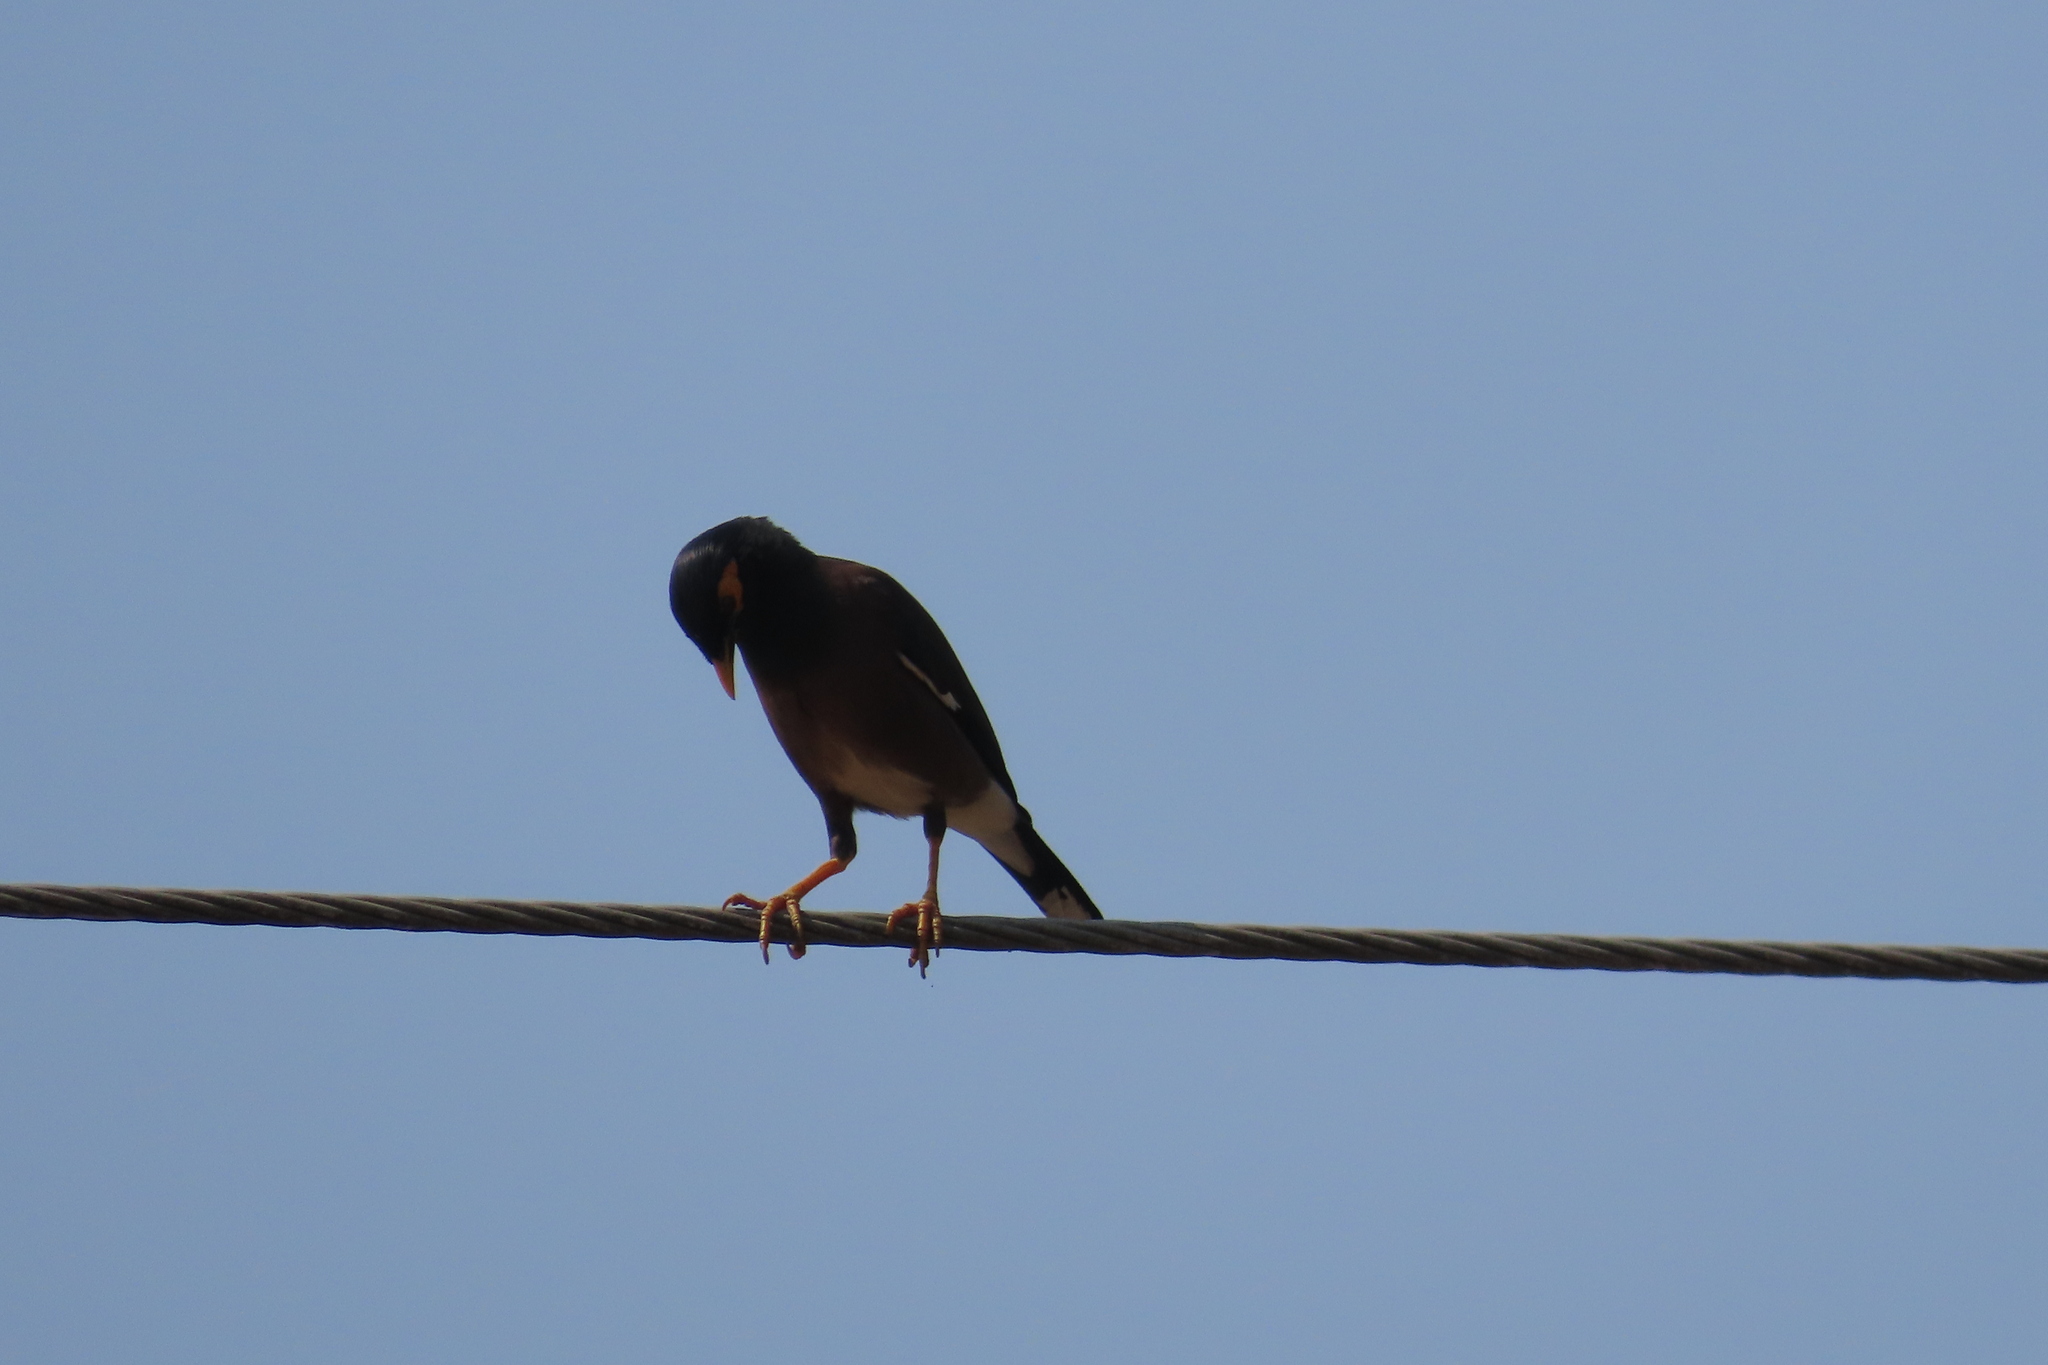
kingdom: Animalia
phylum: Chordata
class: Aves
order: Passeriformes
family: Sturnidae
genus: Acridotheres
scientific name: Acridotheres tristis
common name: Common myna
